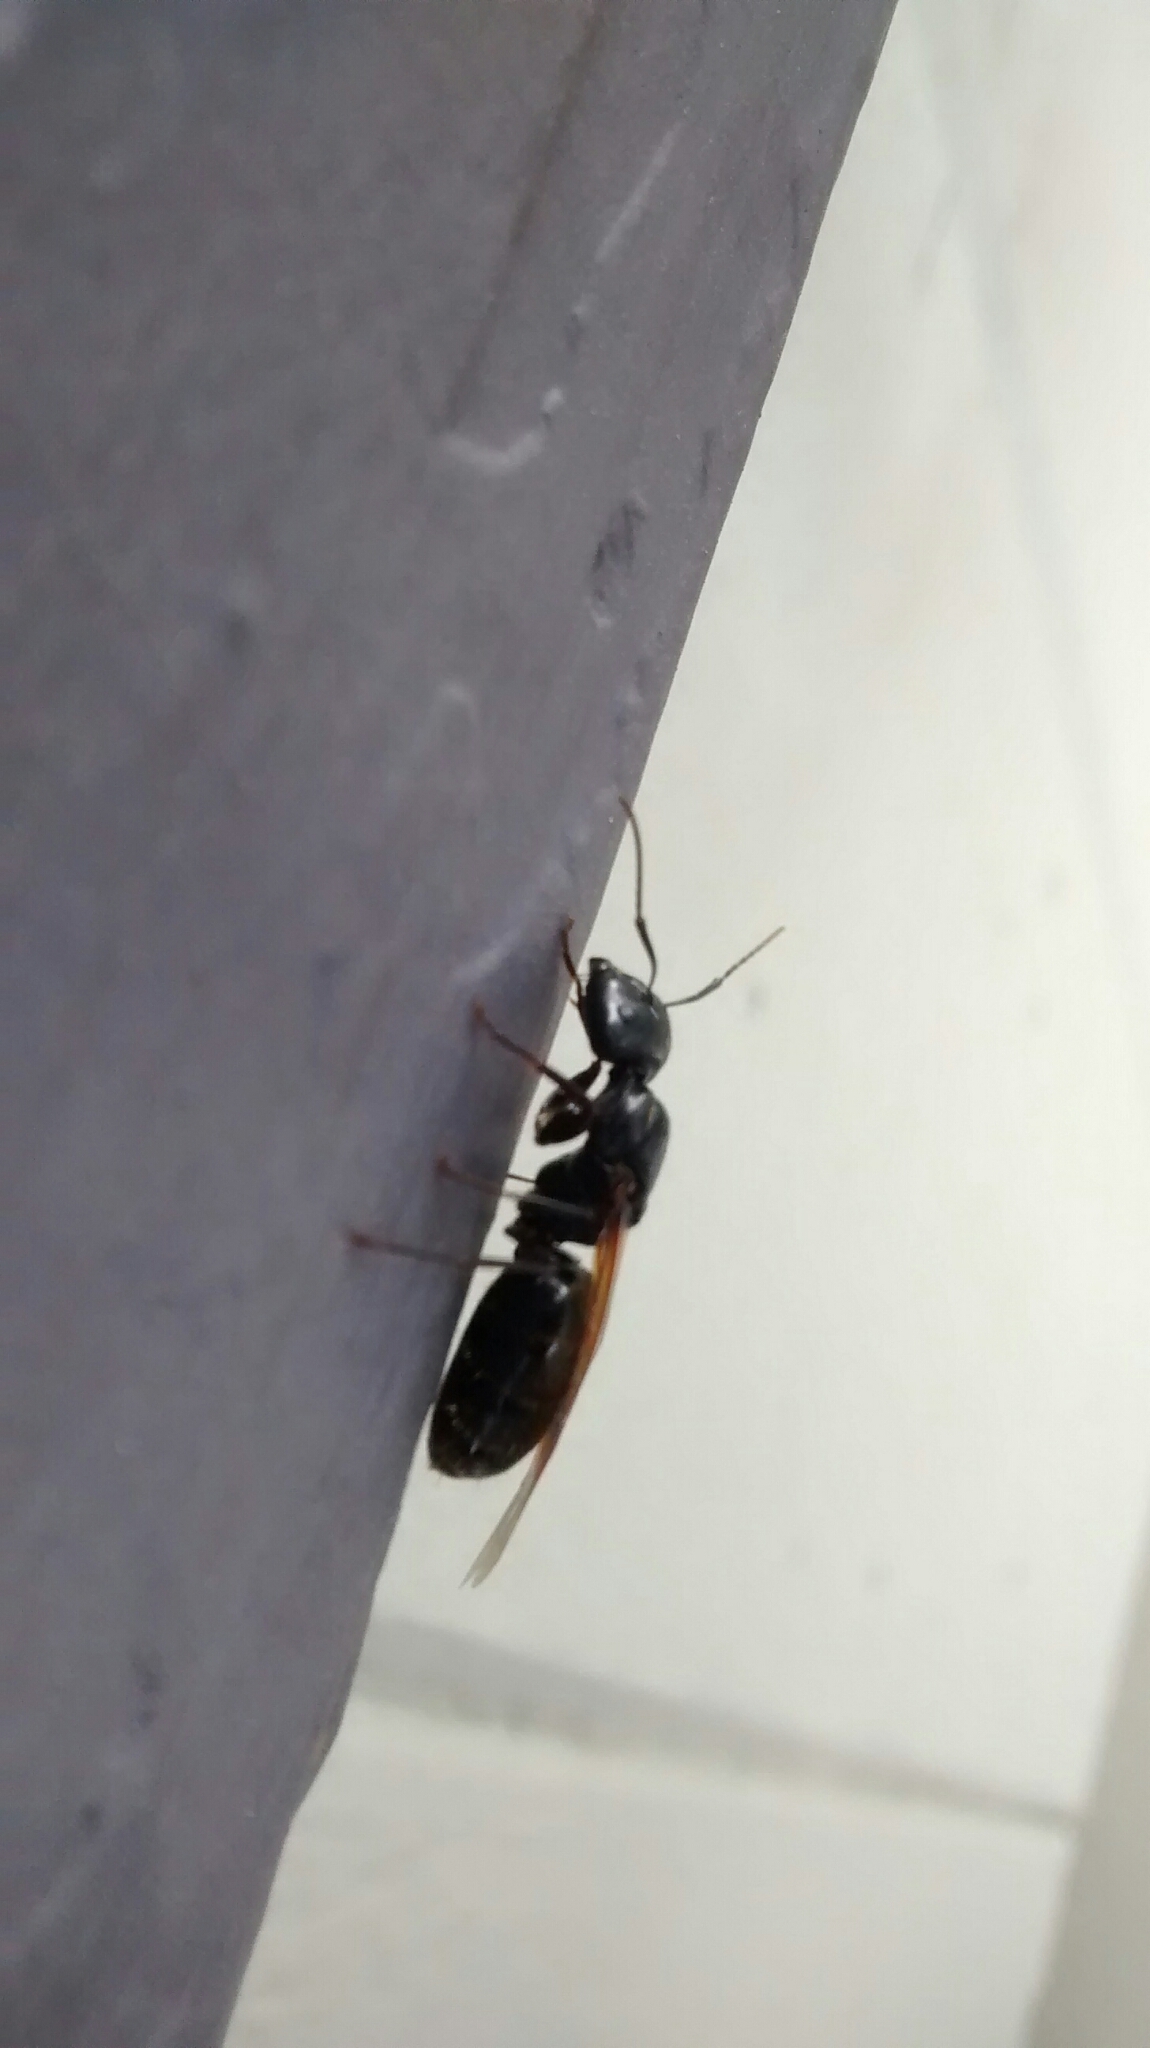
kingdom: Animalia
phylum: Arthropoda
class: Insecta
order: Hymenoptera
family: Formicidae
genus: Camponotus
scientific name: Camponotus pennsylvanicus
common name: Black carpenter ant
